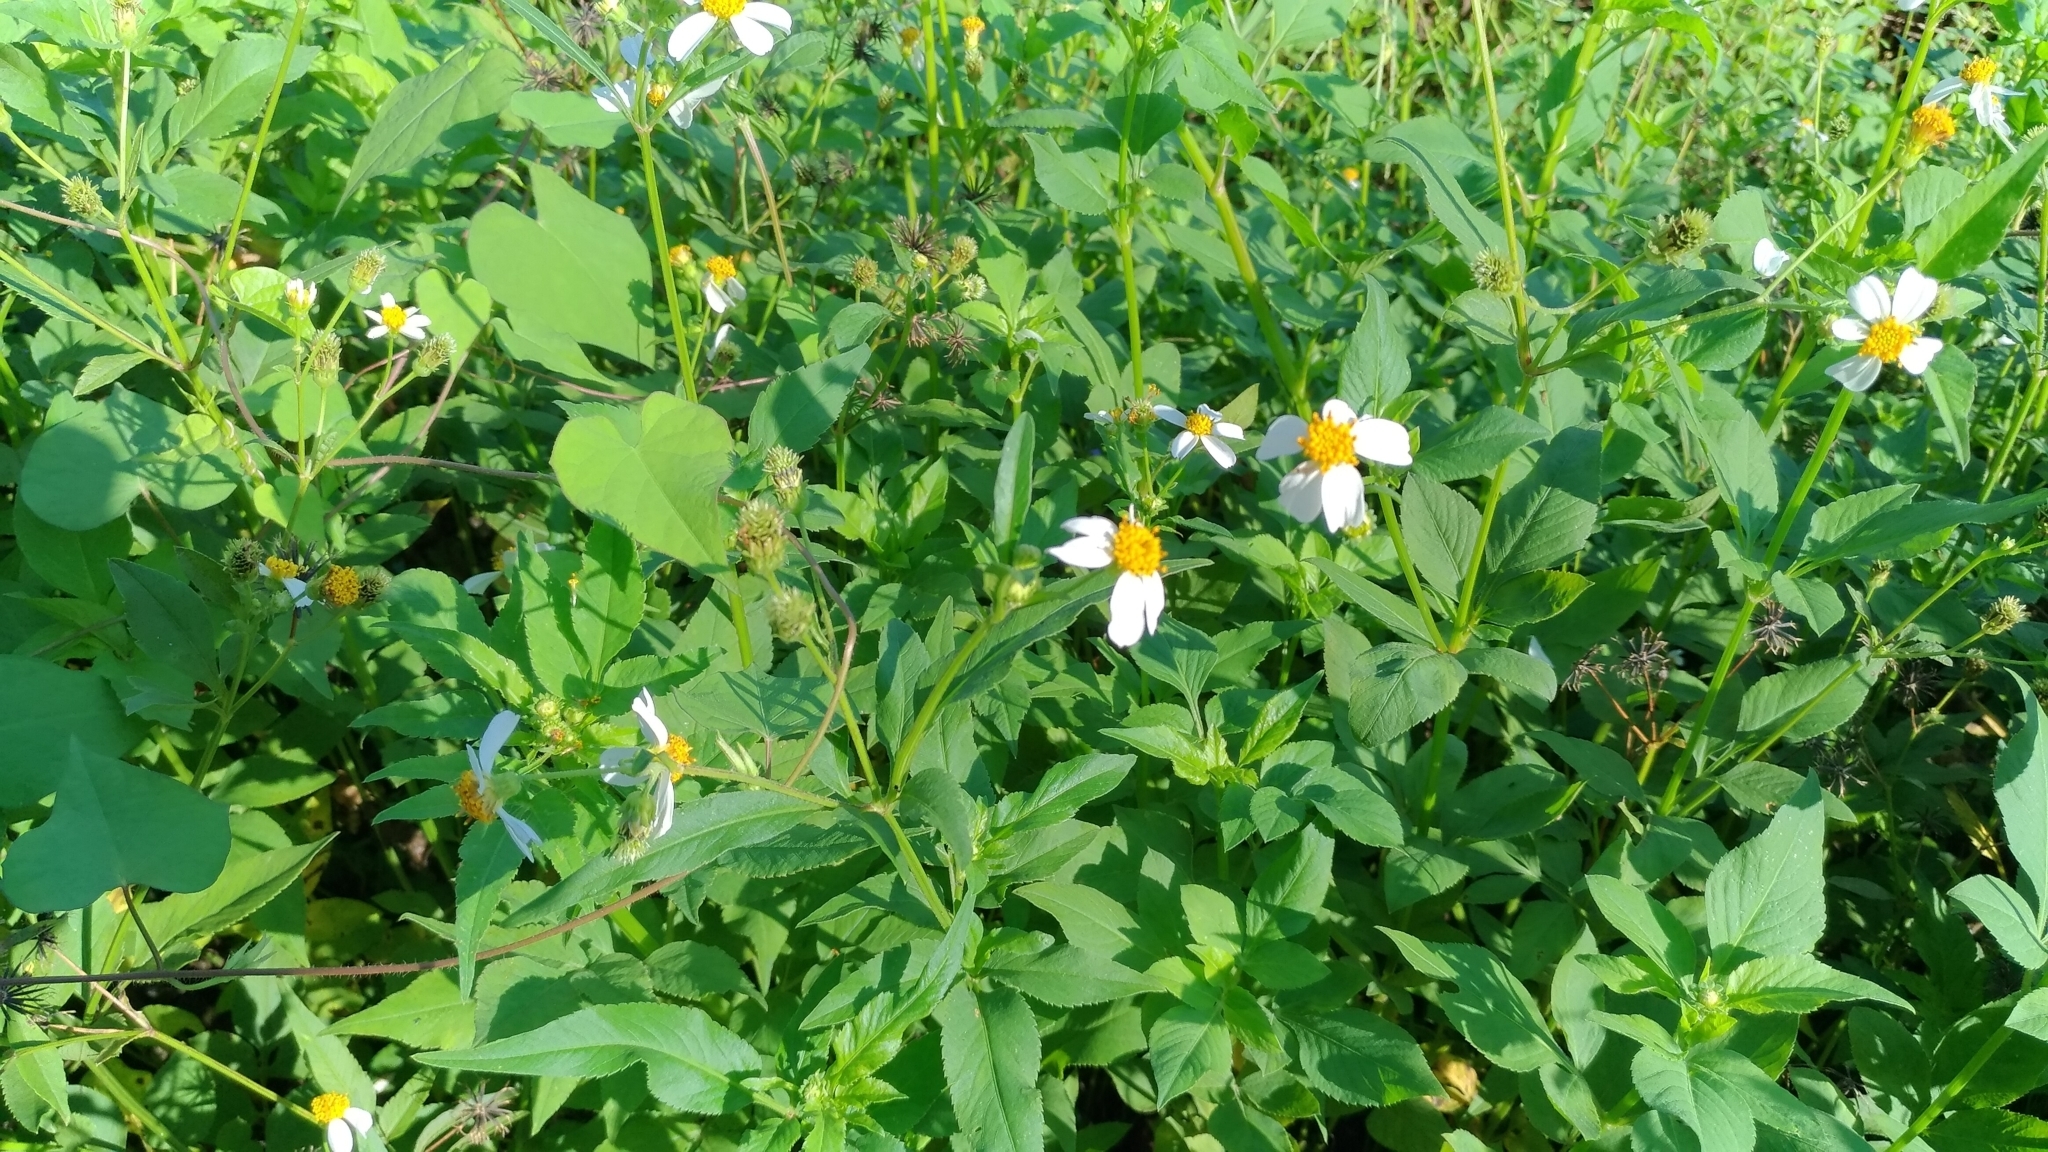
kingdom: Plantae
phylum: Tracheophyta
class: Magnoliopsida
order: Asterales
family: Asteraceae
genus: Bidens
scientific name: Bidens alba
